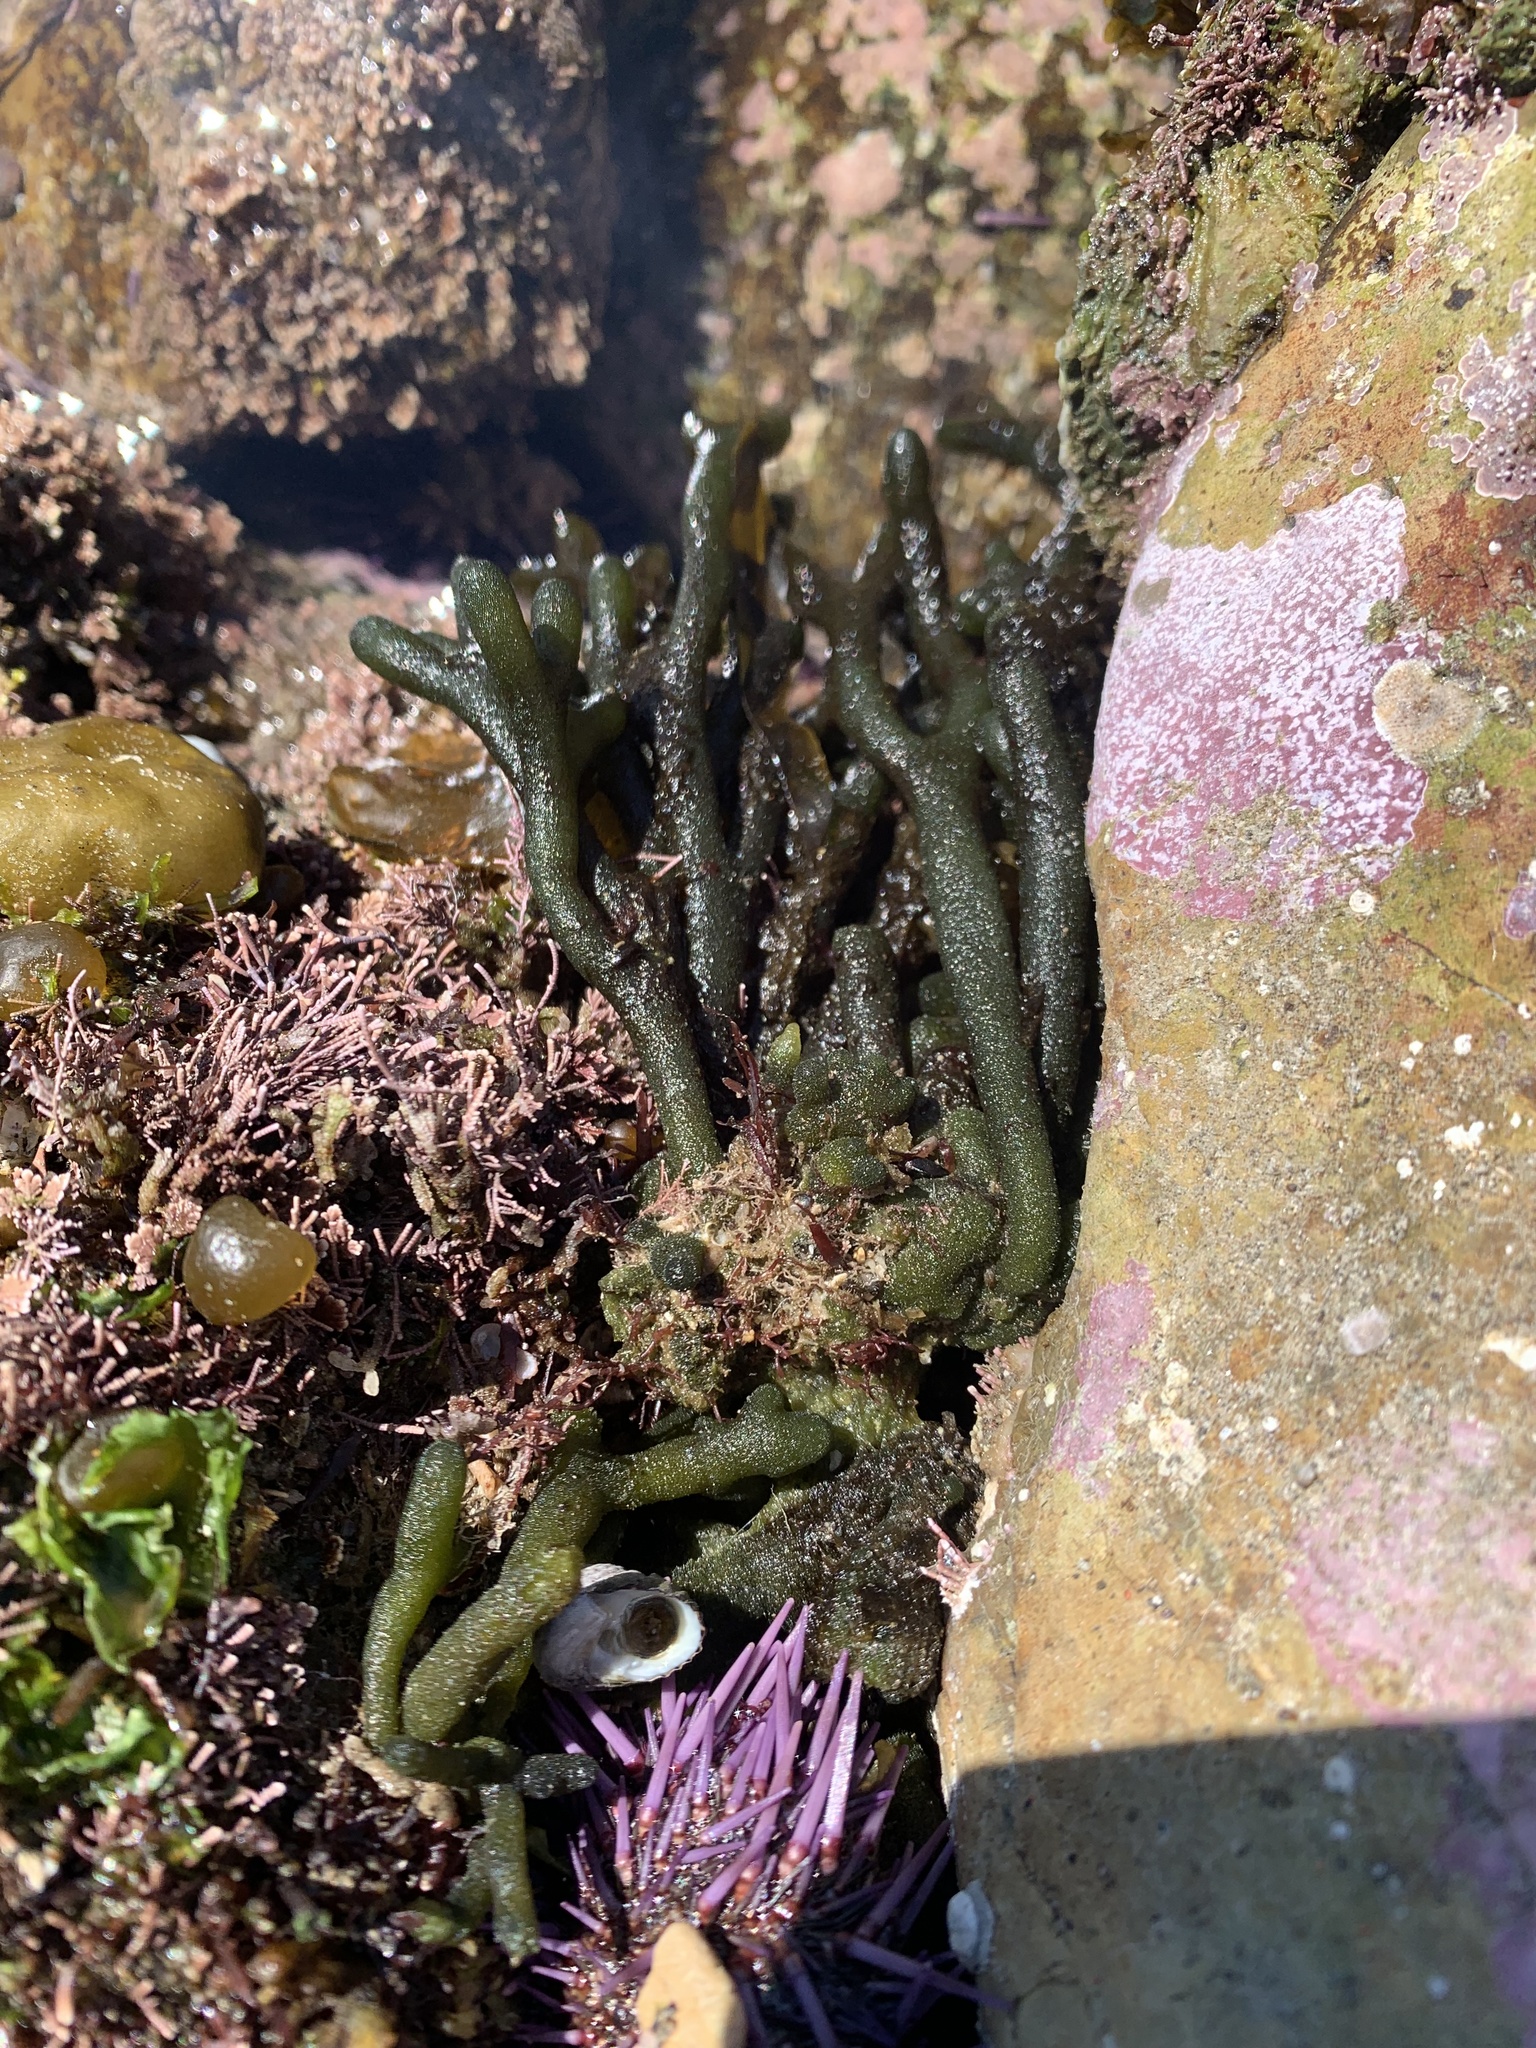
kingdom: Plantae
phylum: Chlorophyta
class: Ulvophyceae
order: Bryopsidales
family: Codiaceae
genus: Codium
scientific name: Codium fragile
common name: Dead man's fingers
